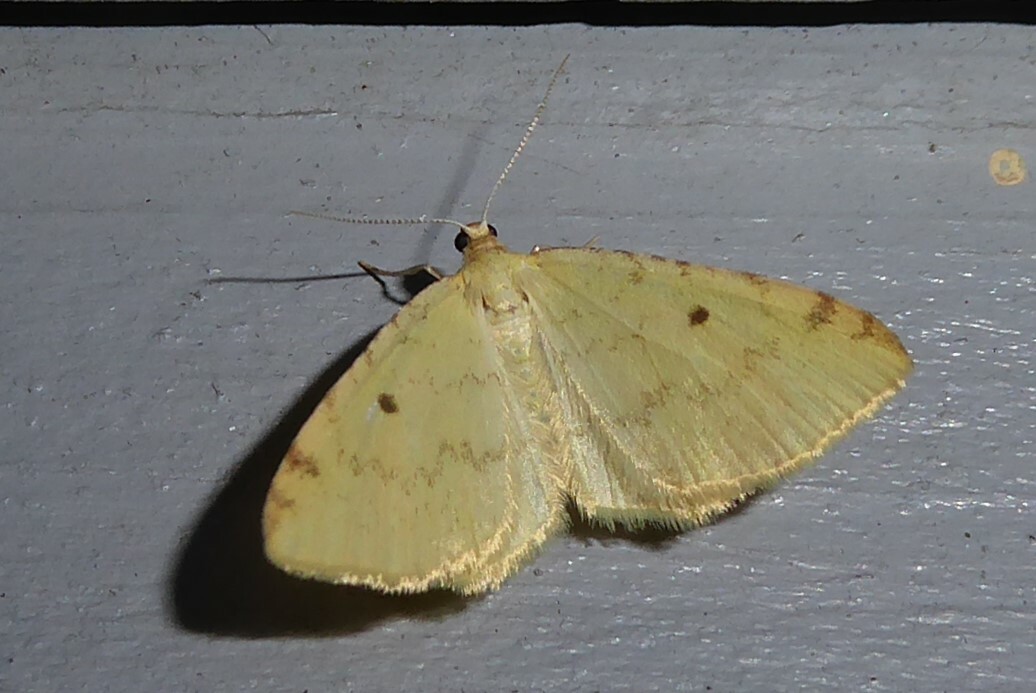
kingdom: Animalia
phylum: Arthropoda
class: Insecta
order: Lepidoptera
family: Geometridae
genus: Epiphryne
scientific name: Epiphryne undosata
